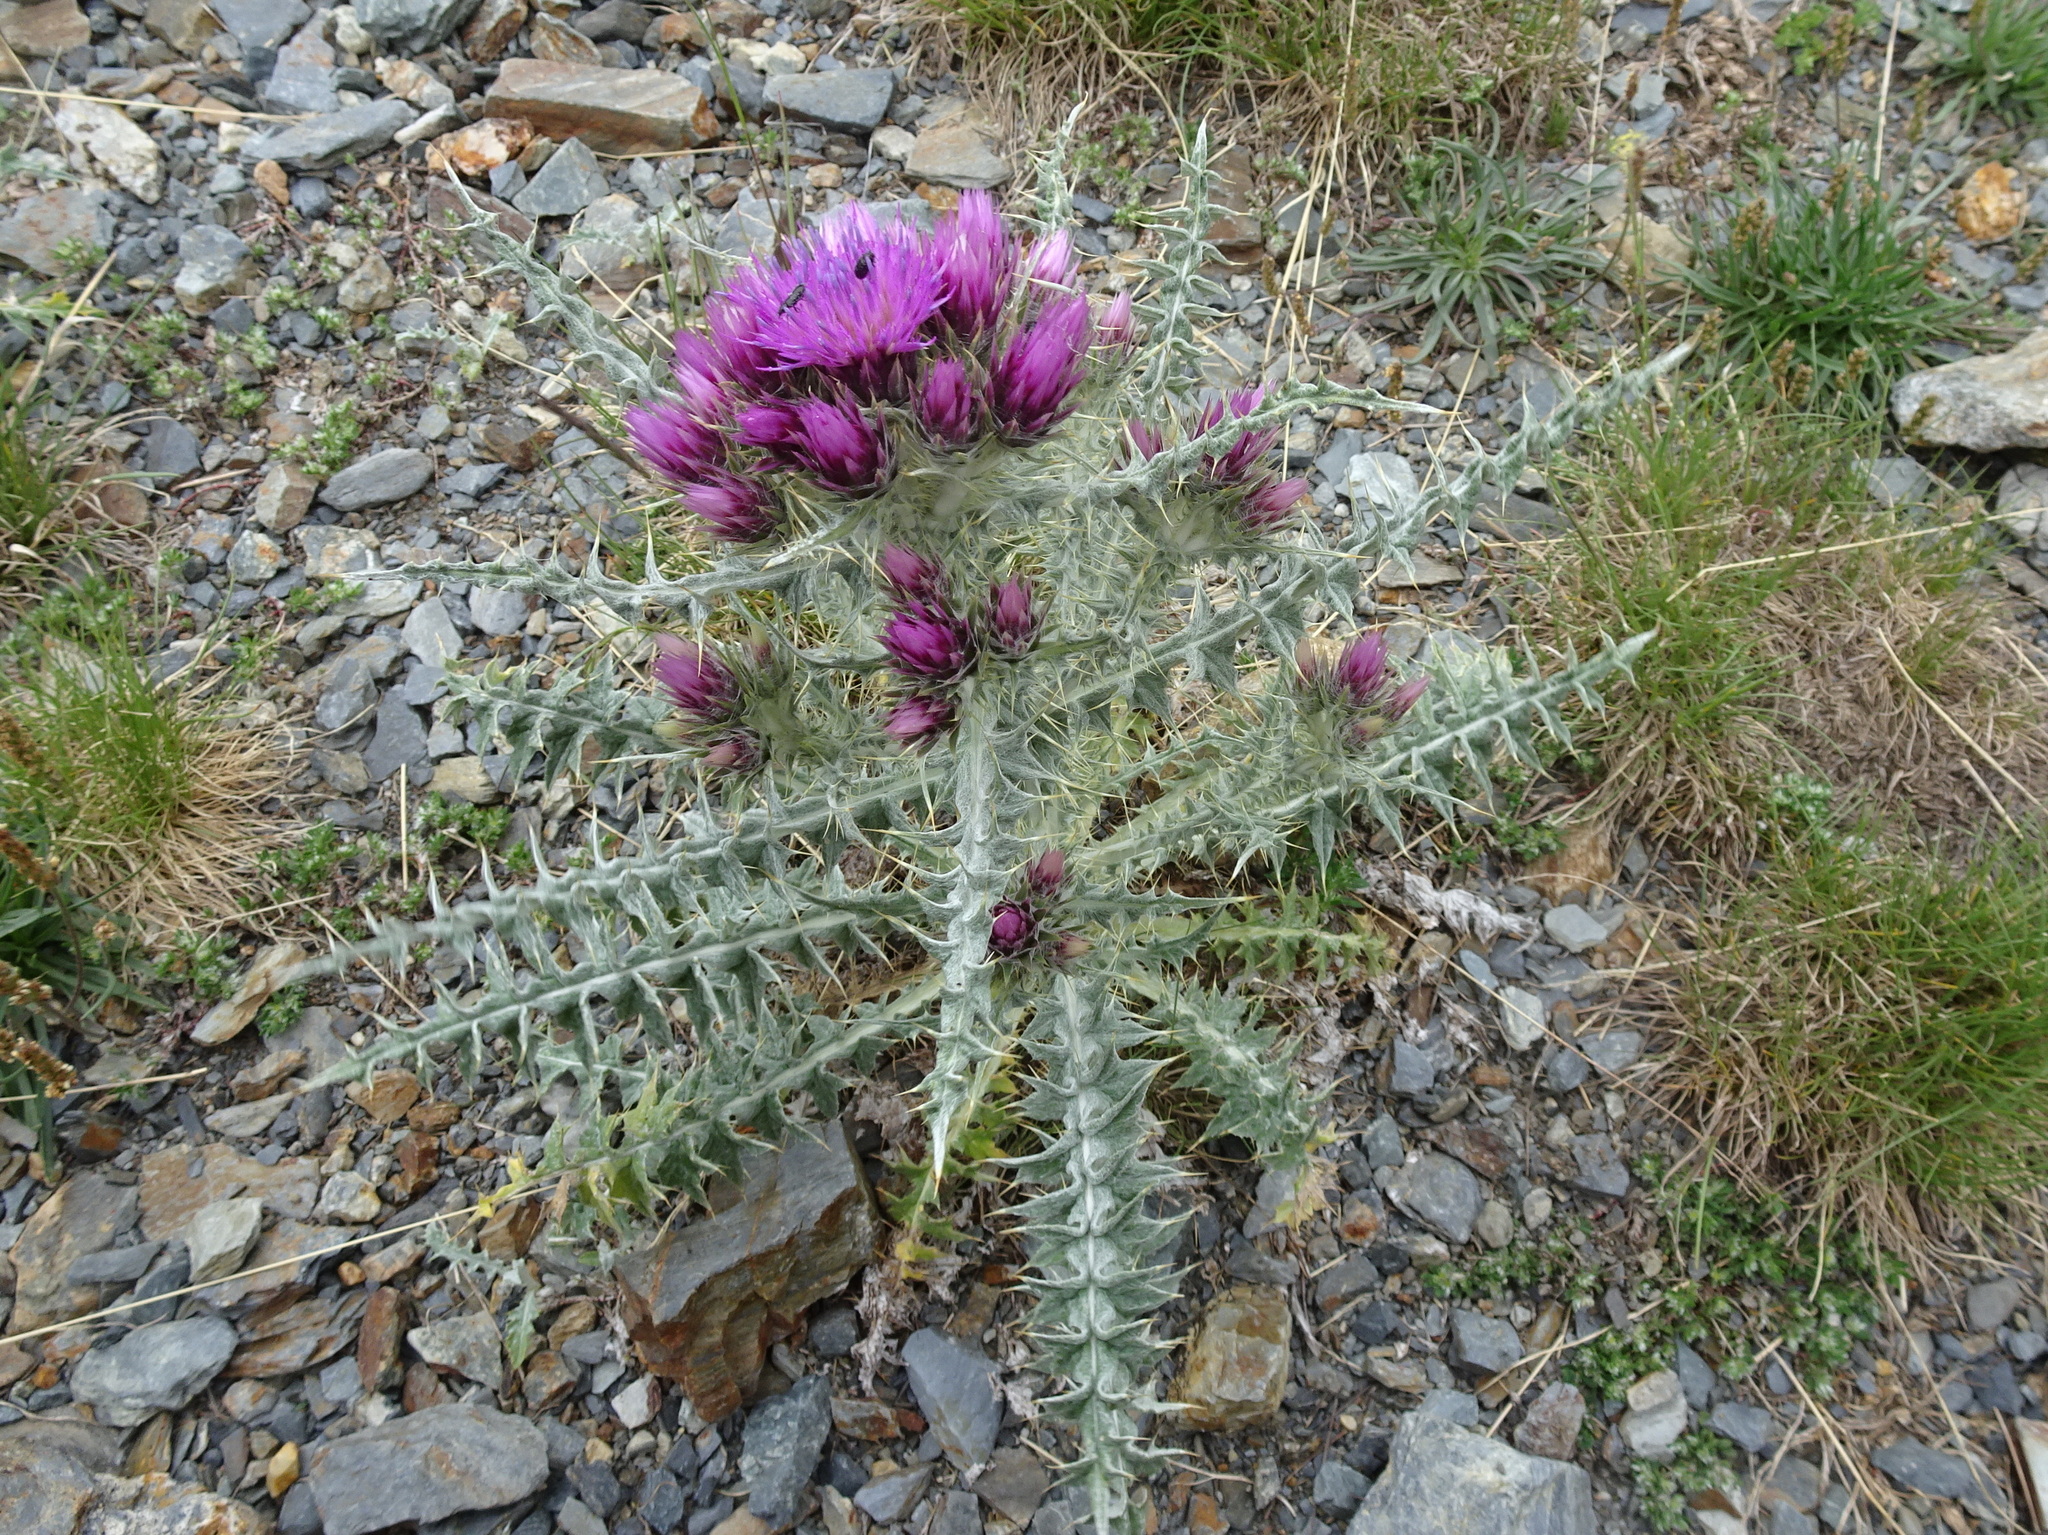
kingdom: Plantae
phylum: Tracheophyta
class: Magnoliopsida
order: Asterales
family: Asteraceae
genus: Carduus
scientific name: Carduus carlinoides
